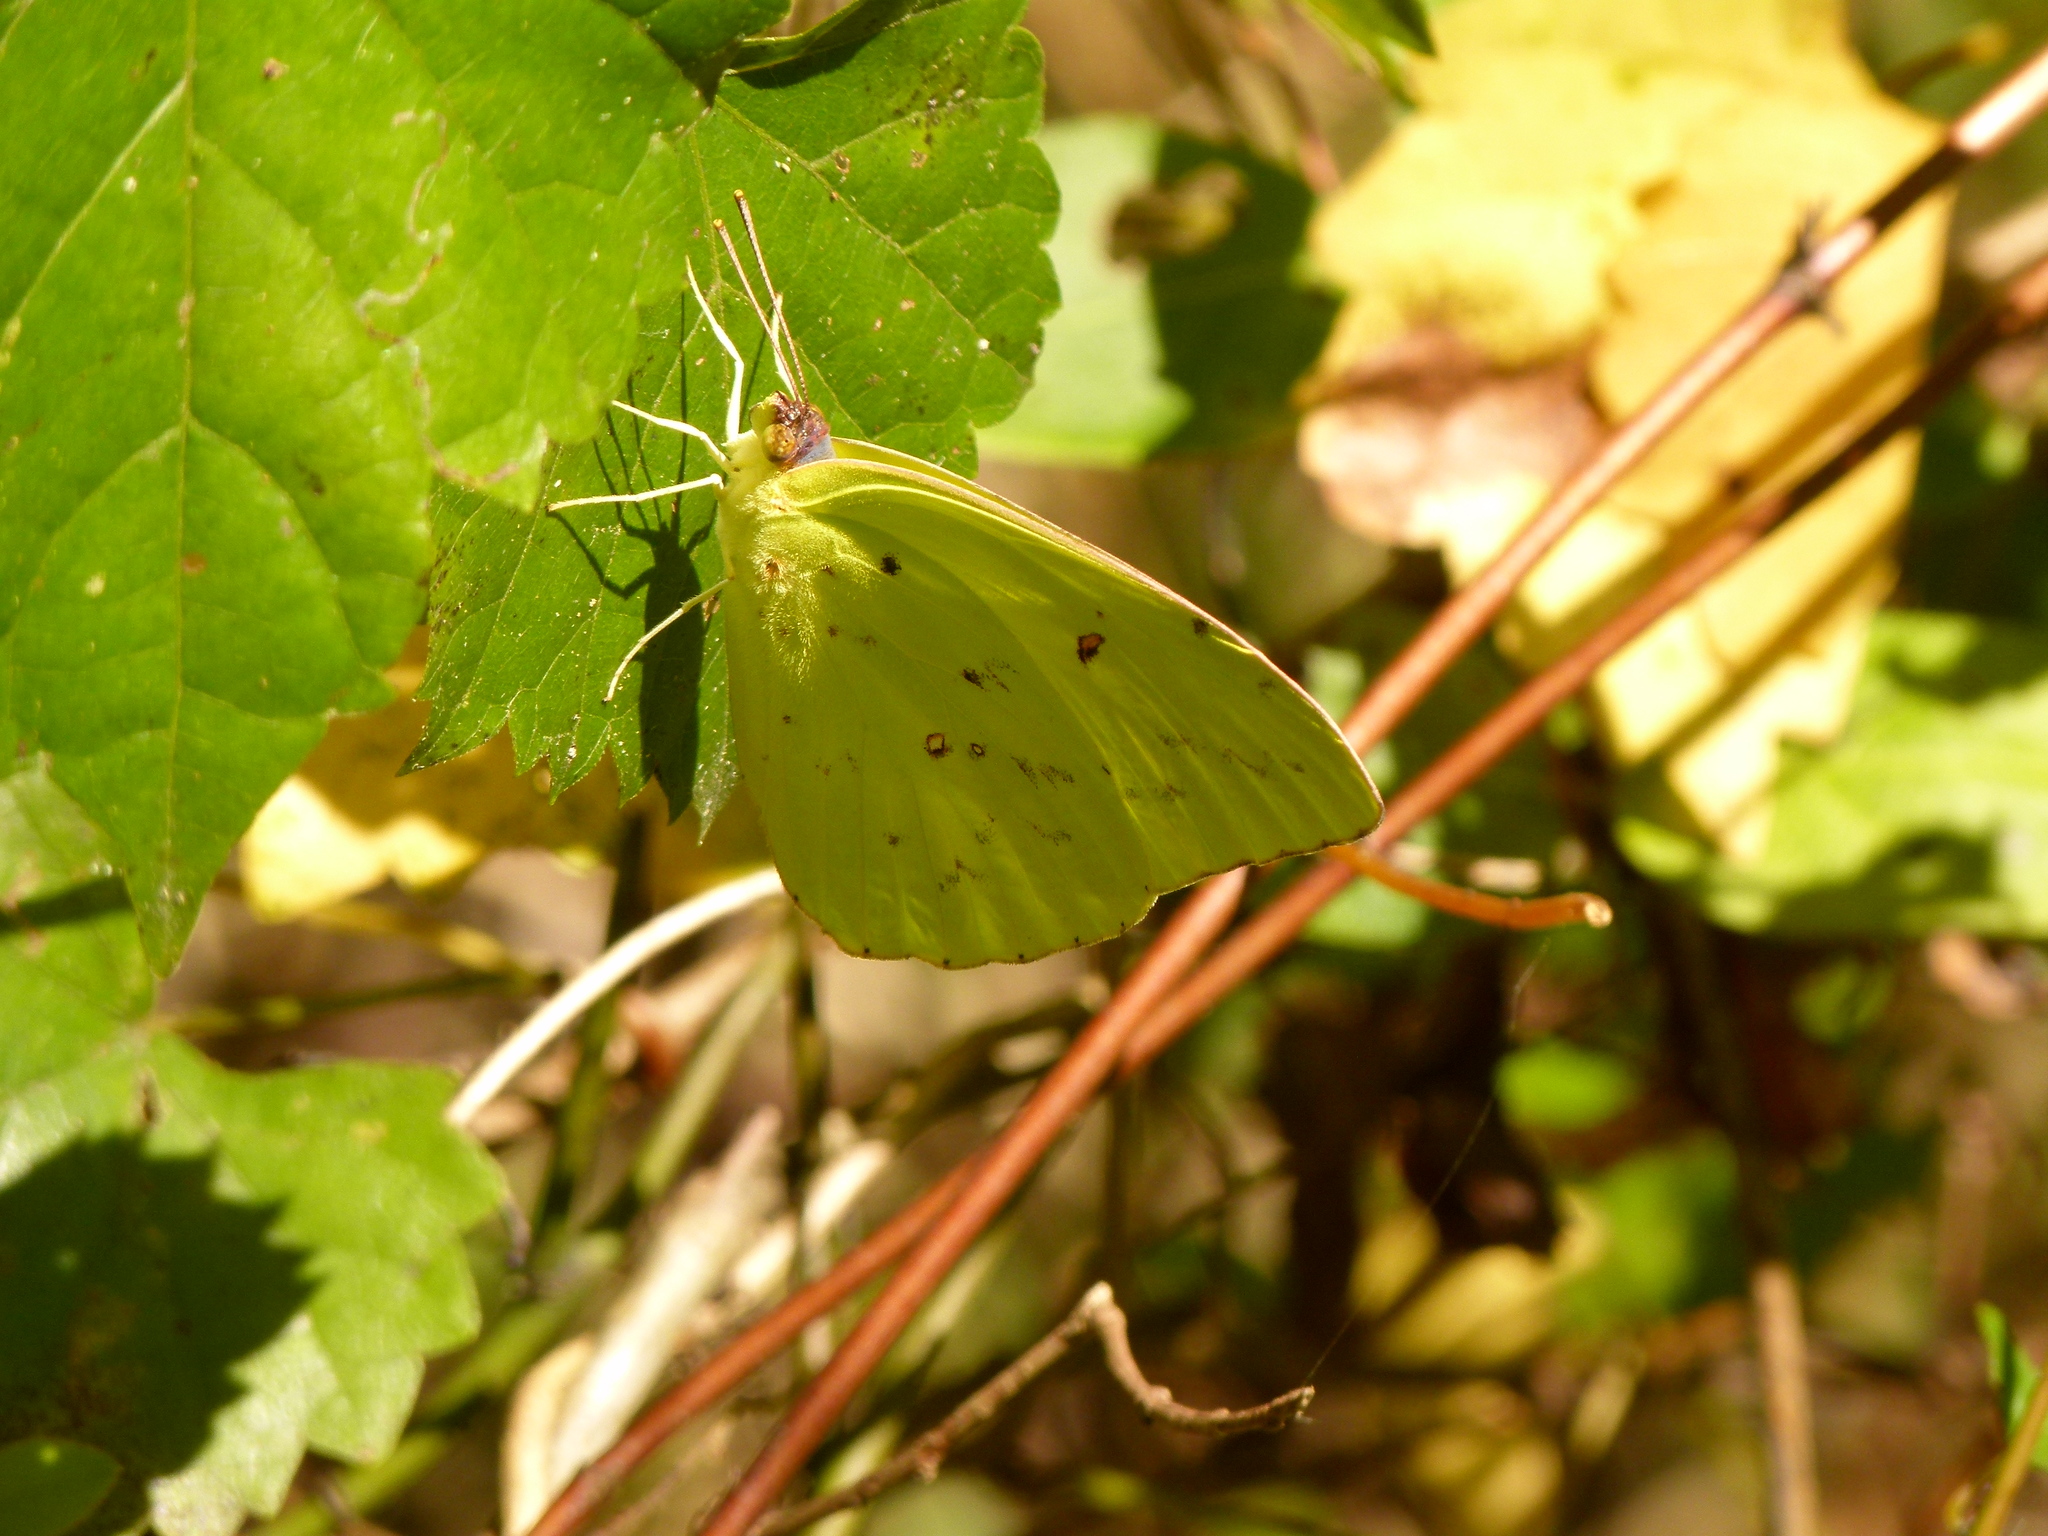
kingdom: Animalia
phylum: Arthropoda
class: Insecta
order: Lepidoptera
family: Pieridae
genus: Phoebis
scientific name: Phoebis sennae
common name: Cloudless sulphur
